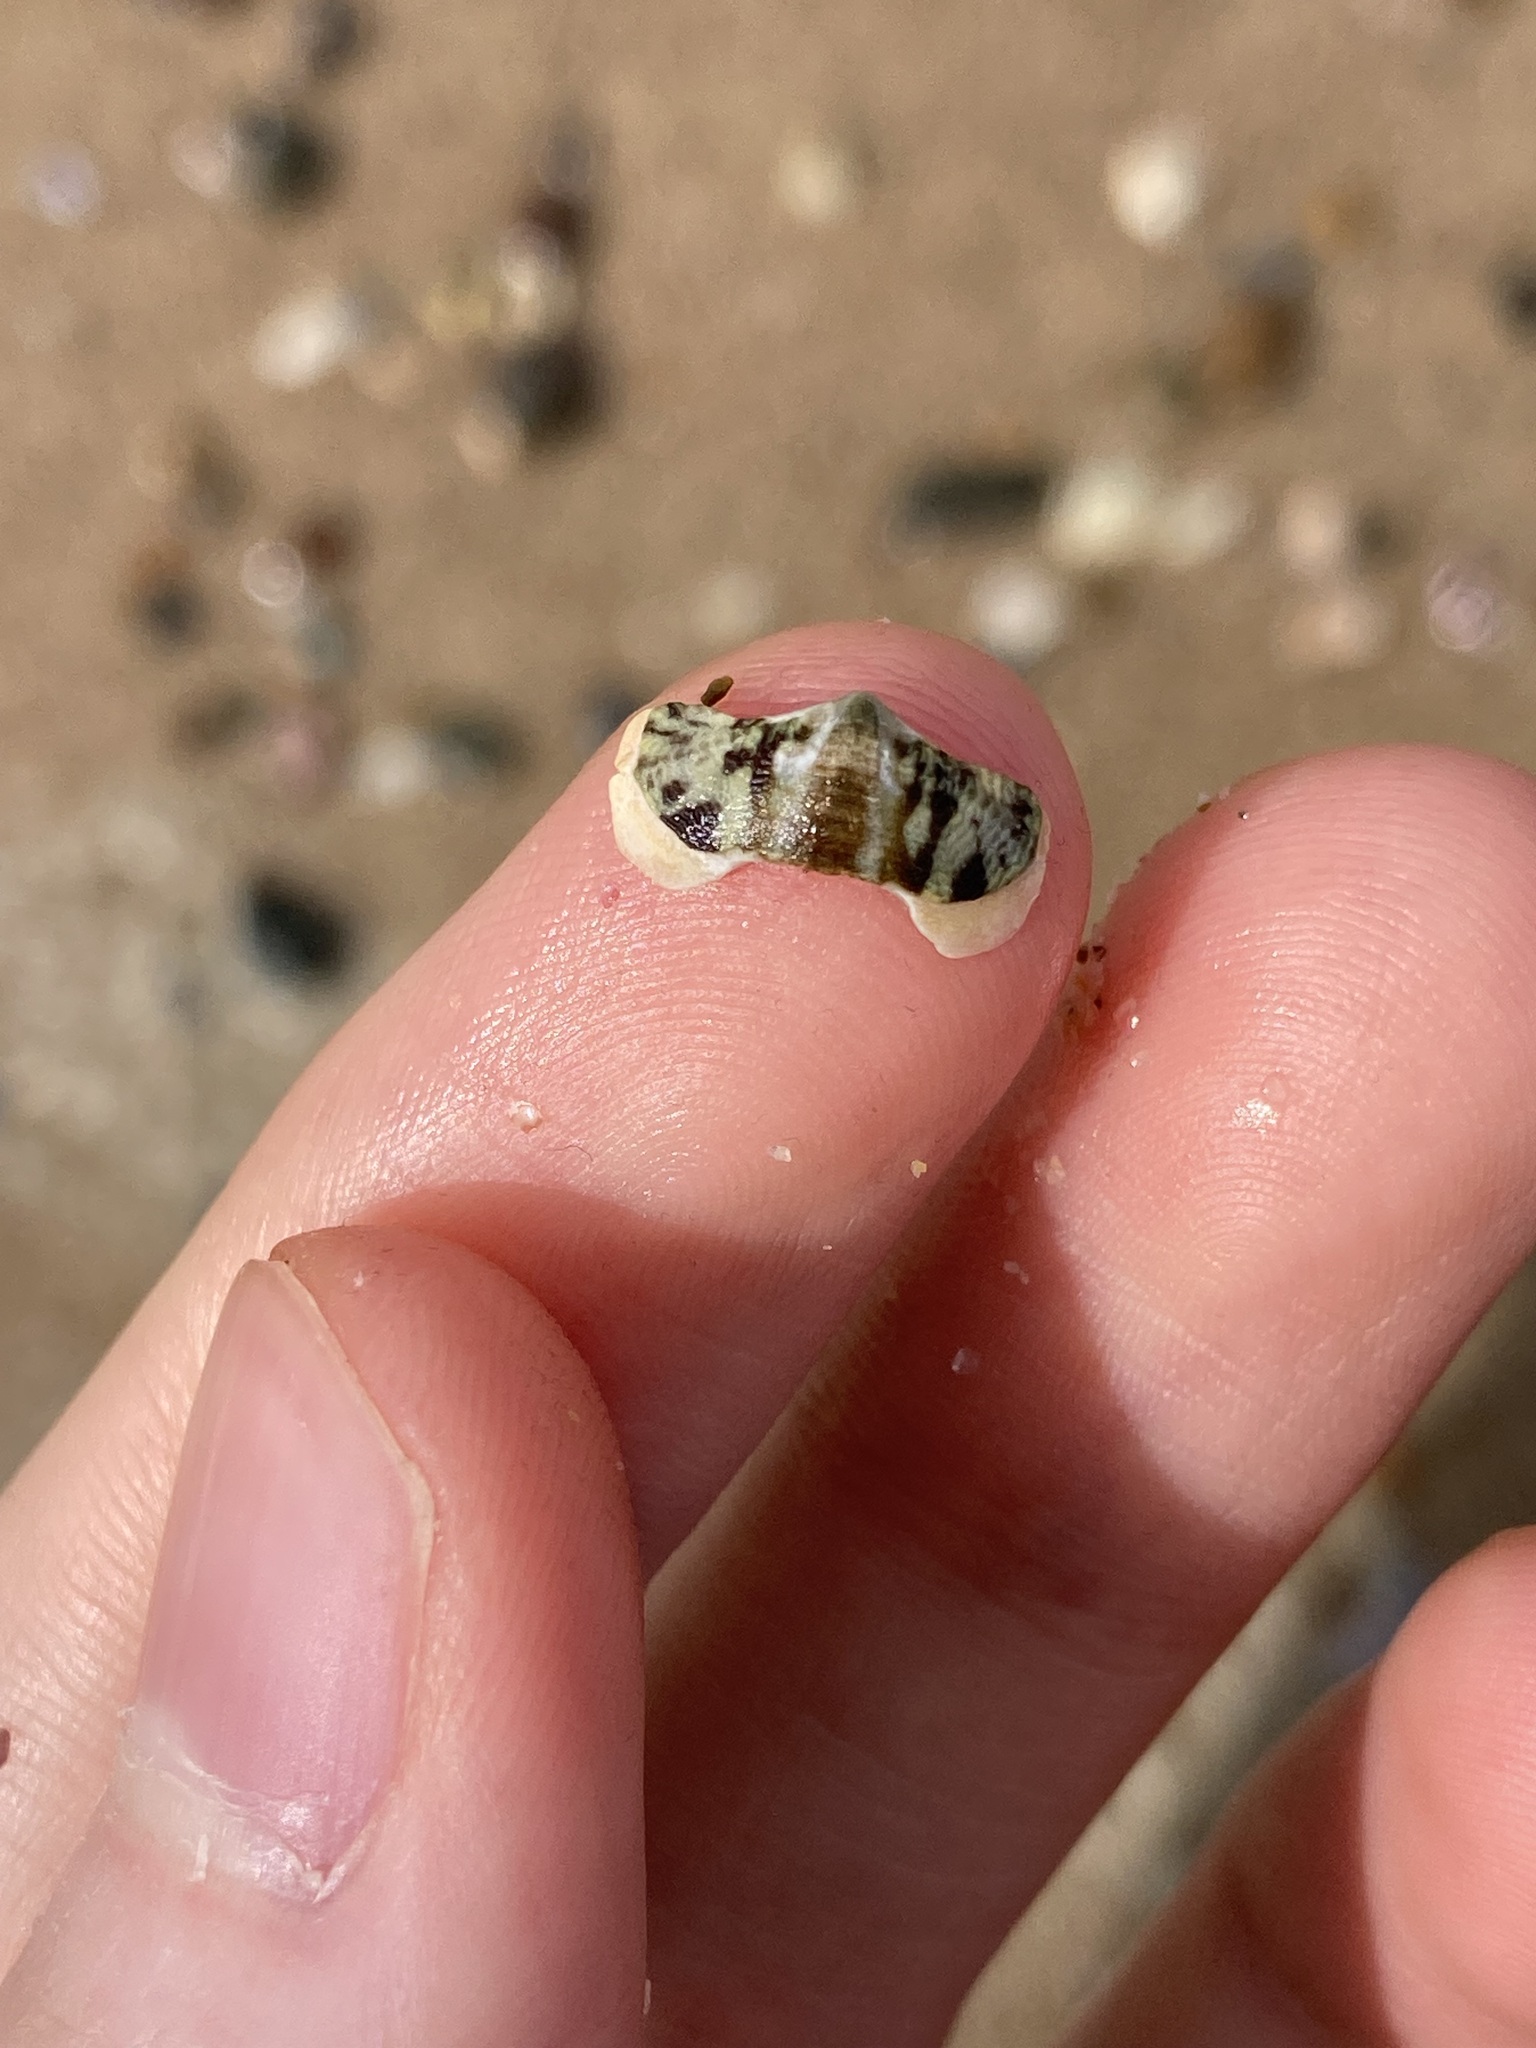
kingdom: Animalia
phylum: Mollusca
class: Polyplacophora
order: Chitonida
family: Mopaliidae
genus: Plaxiphora
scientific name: Plaxiphora albida
